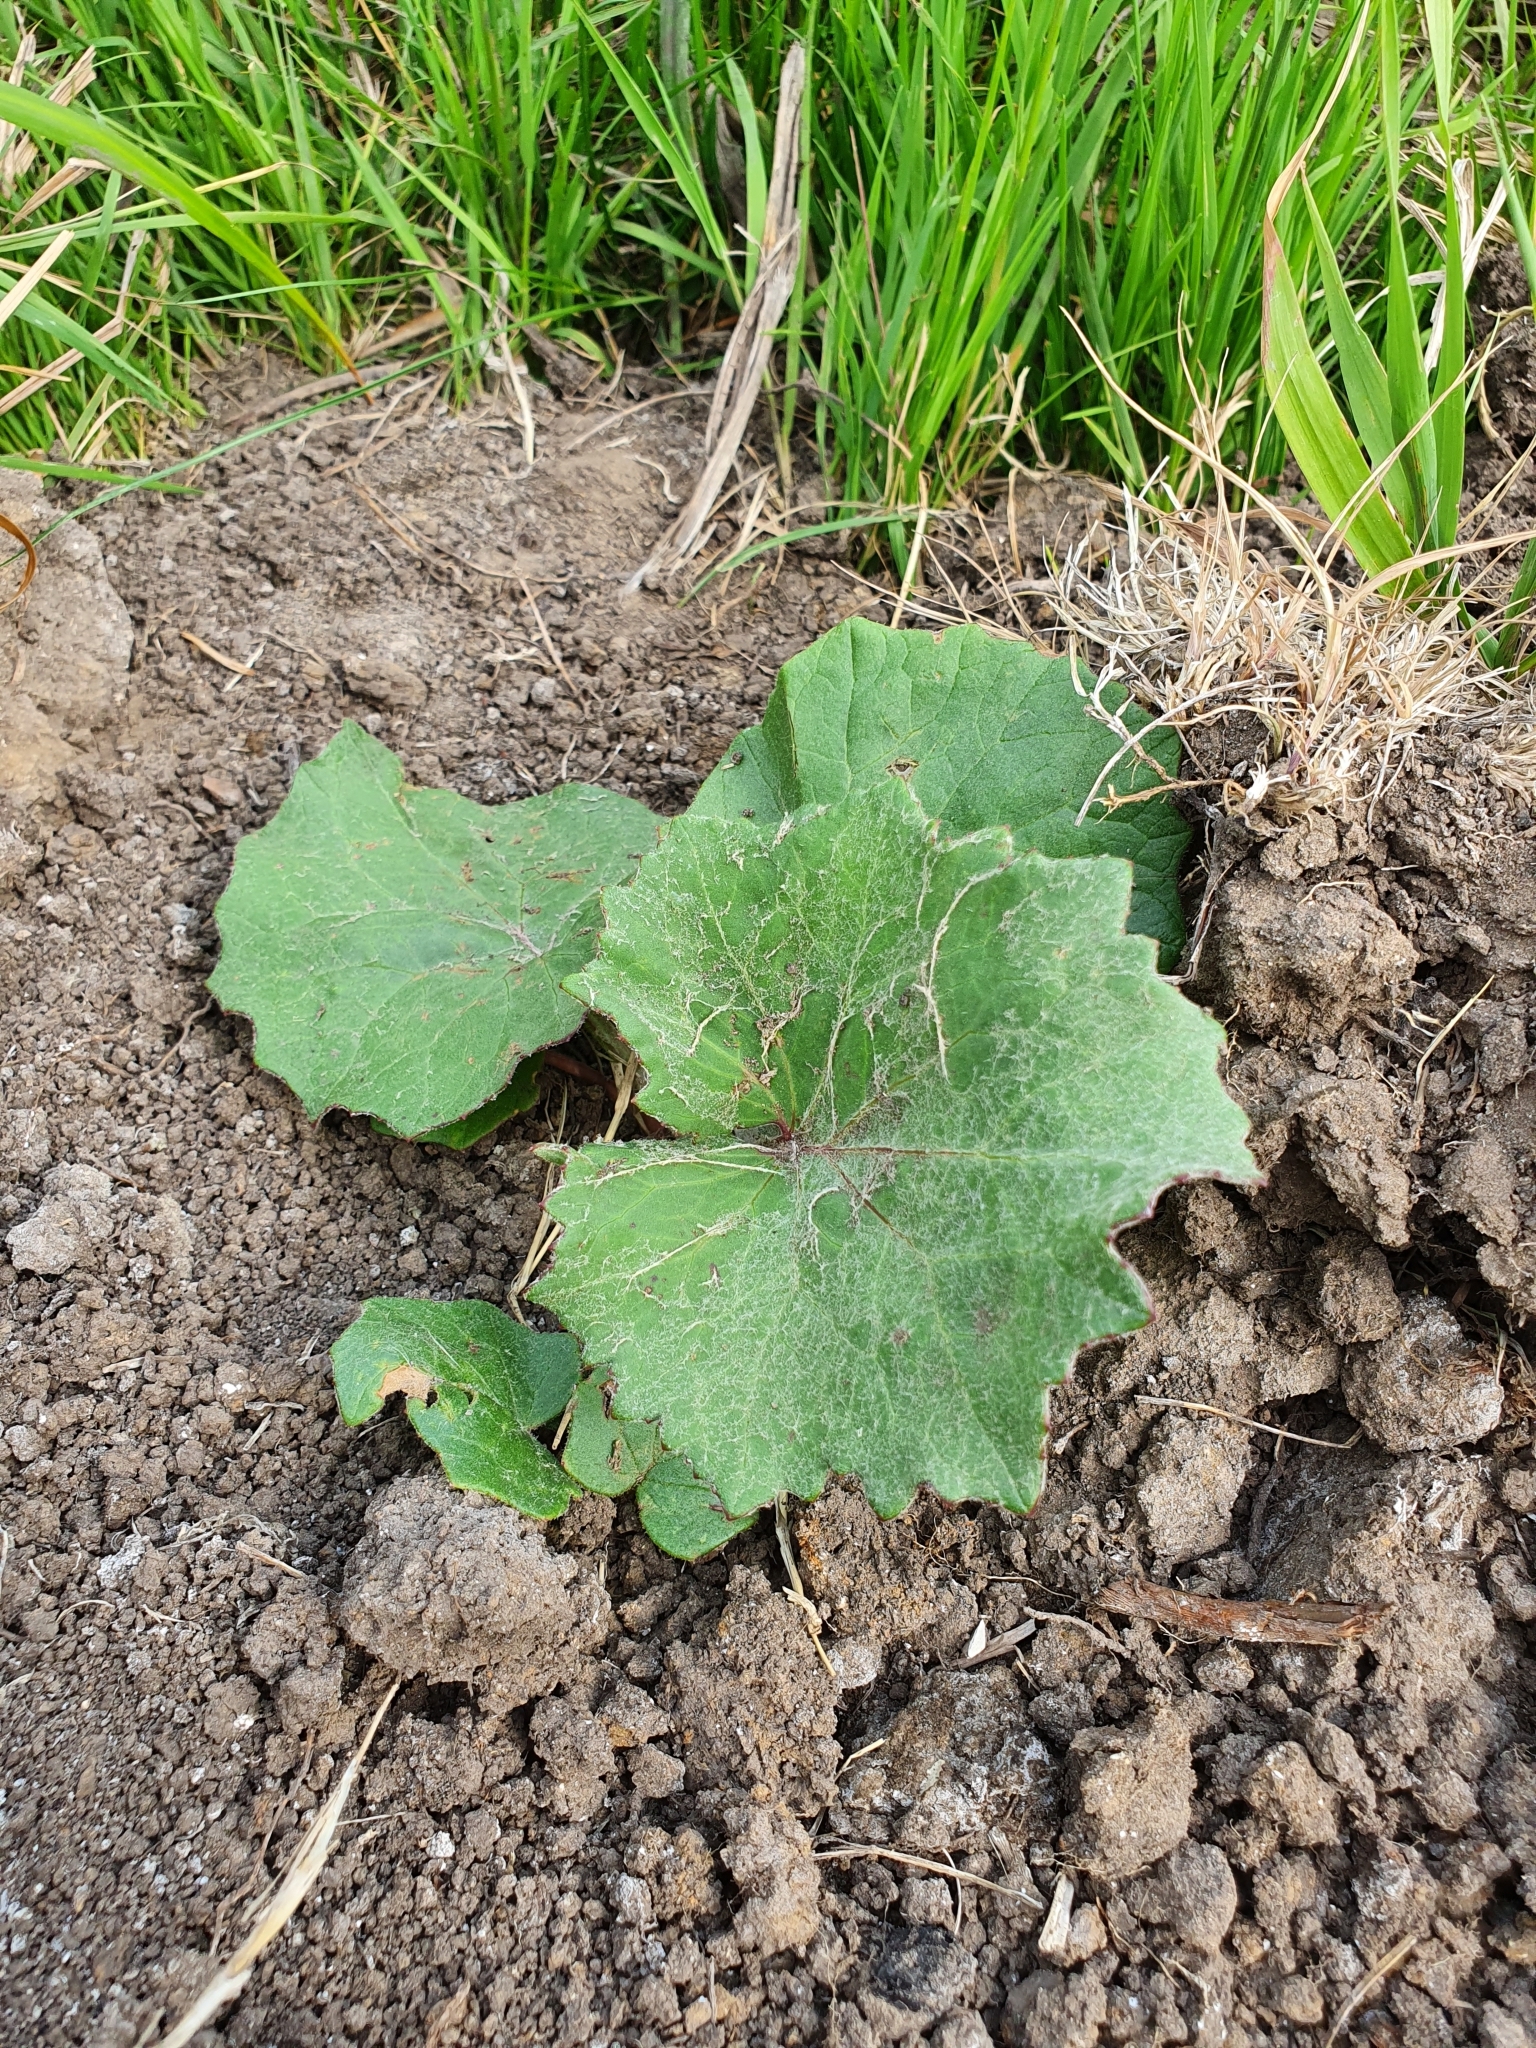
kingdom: Plantae
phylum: Tracheophyta
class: Magnoliopsida
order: Asterales
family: Asteraceae
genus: Tussilago
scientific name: Tussilago farfara
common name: Coltsfoot
